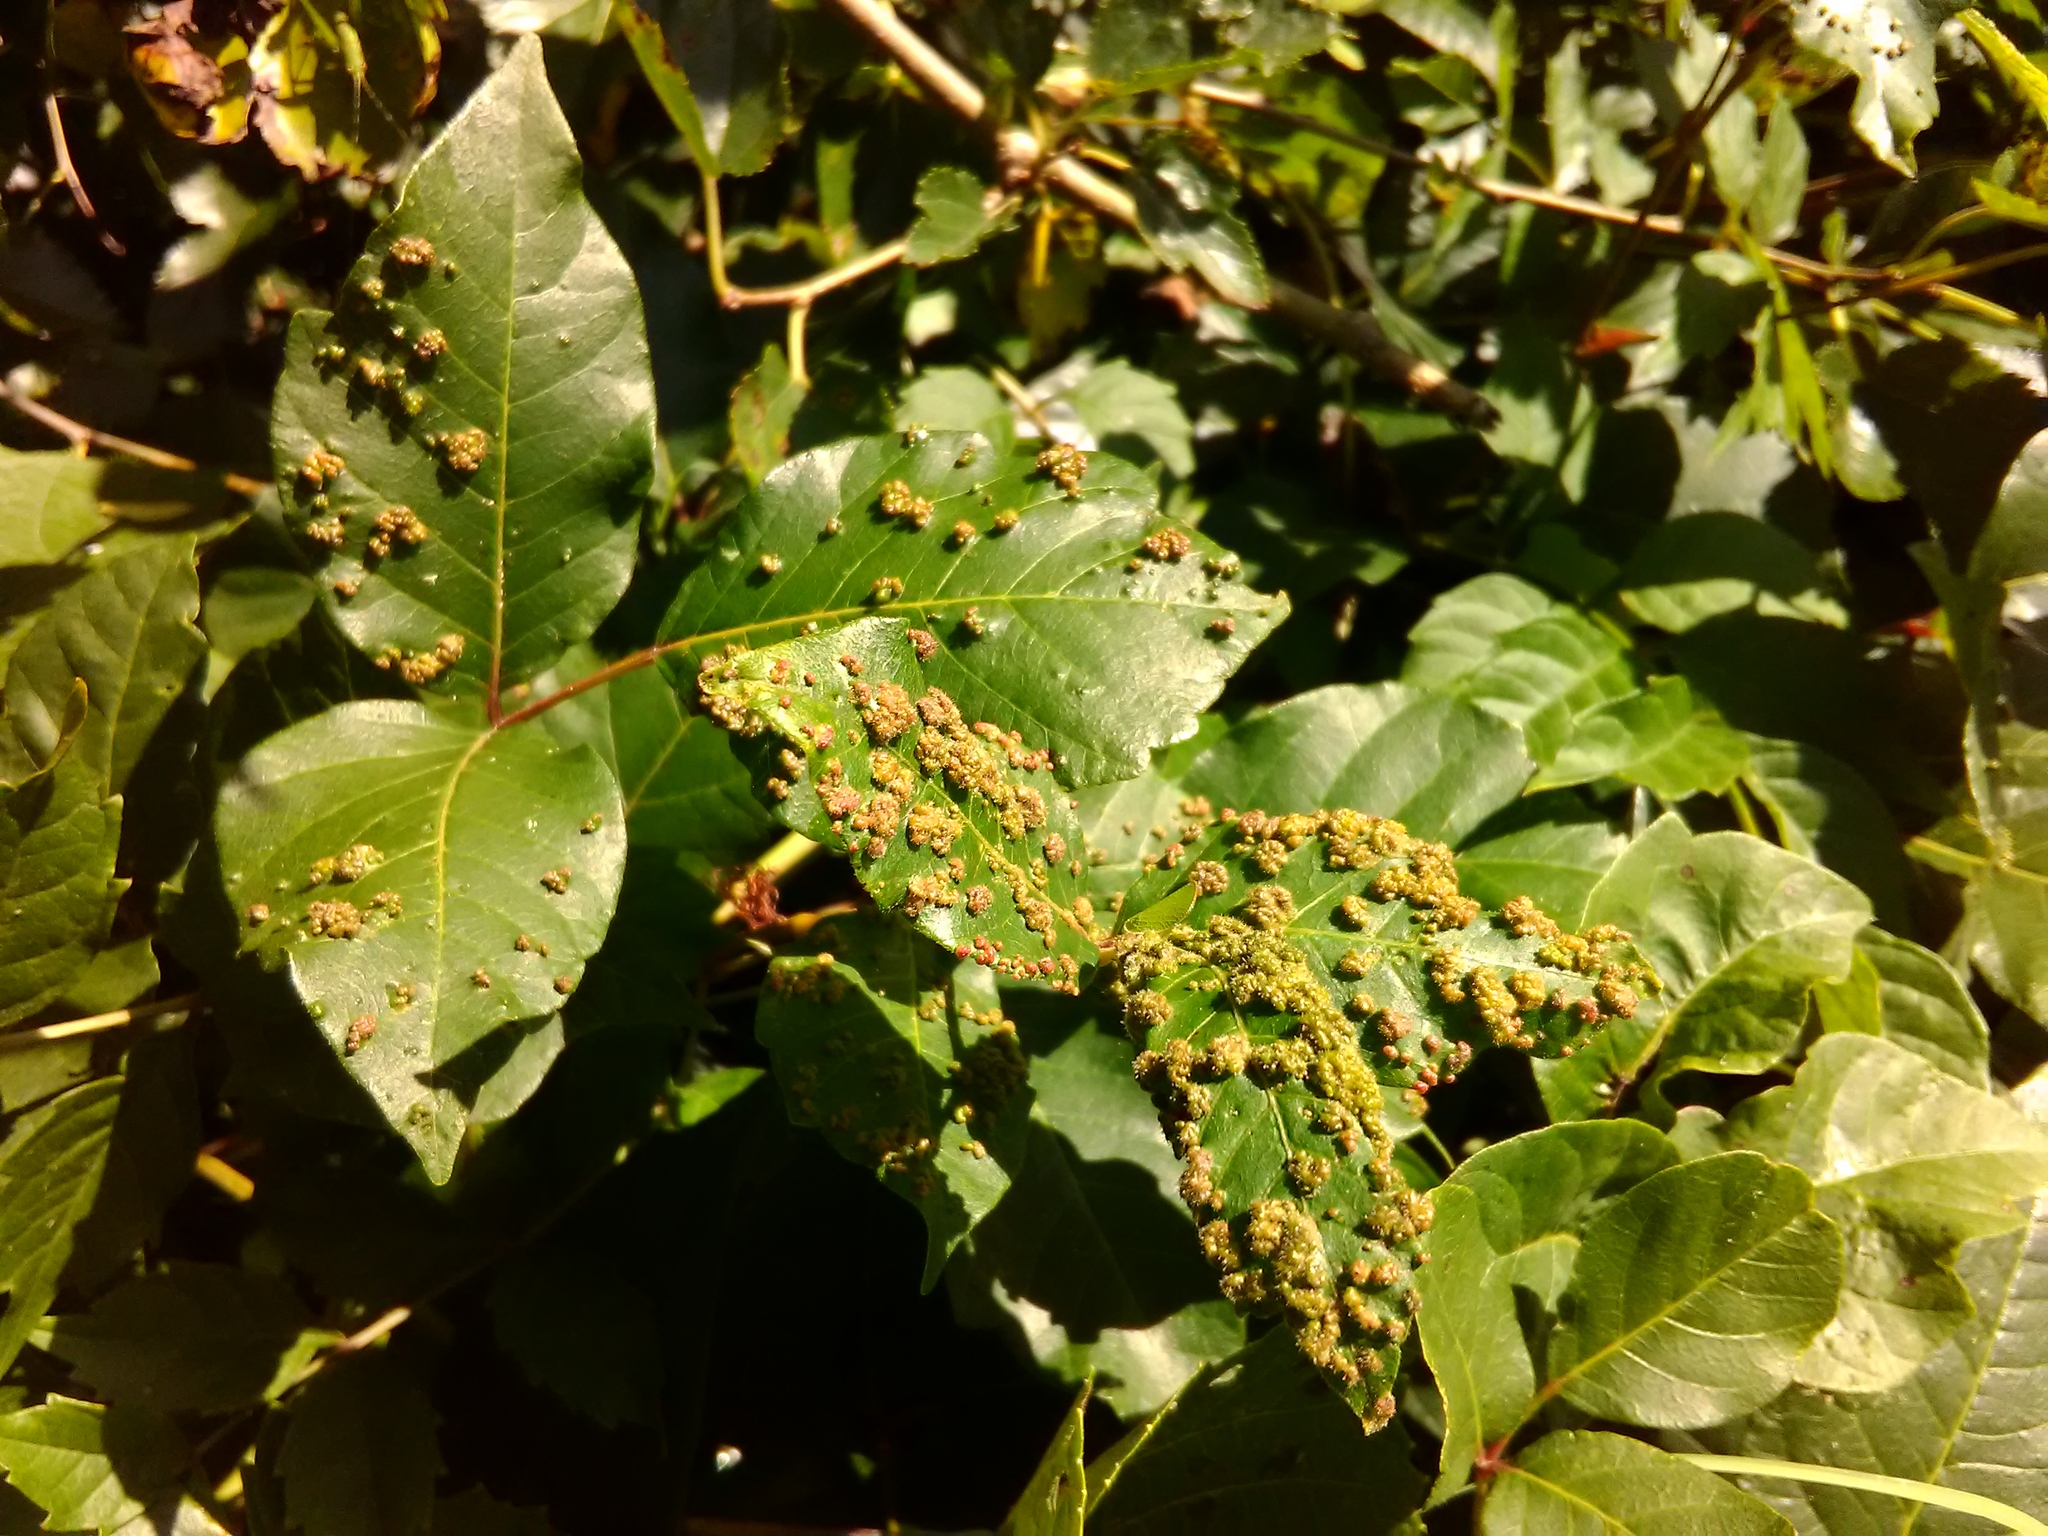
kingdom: Animalia
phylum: Arthropoda
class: Arachnida
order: Trombidiformes
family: Eriophyidae
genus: Aculops
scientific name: Aculops
